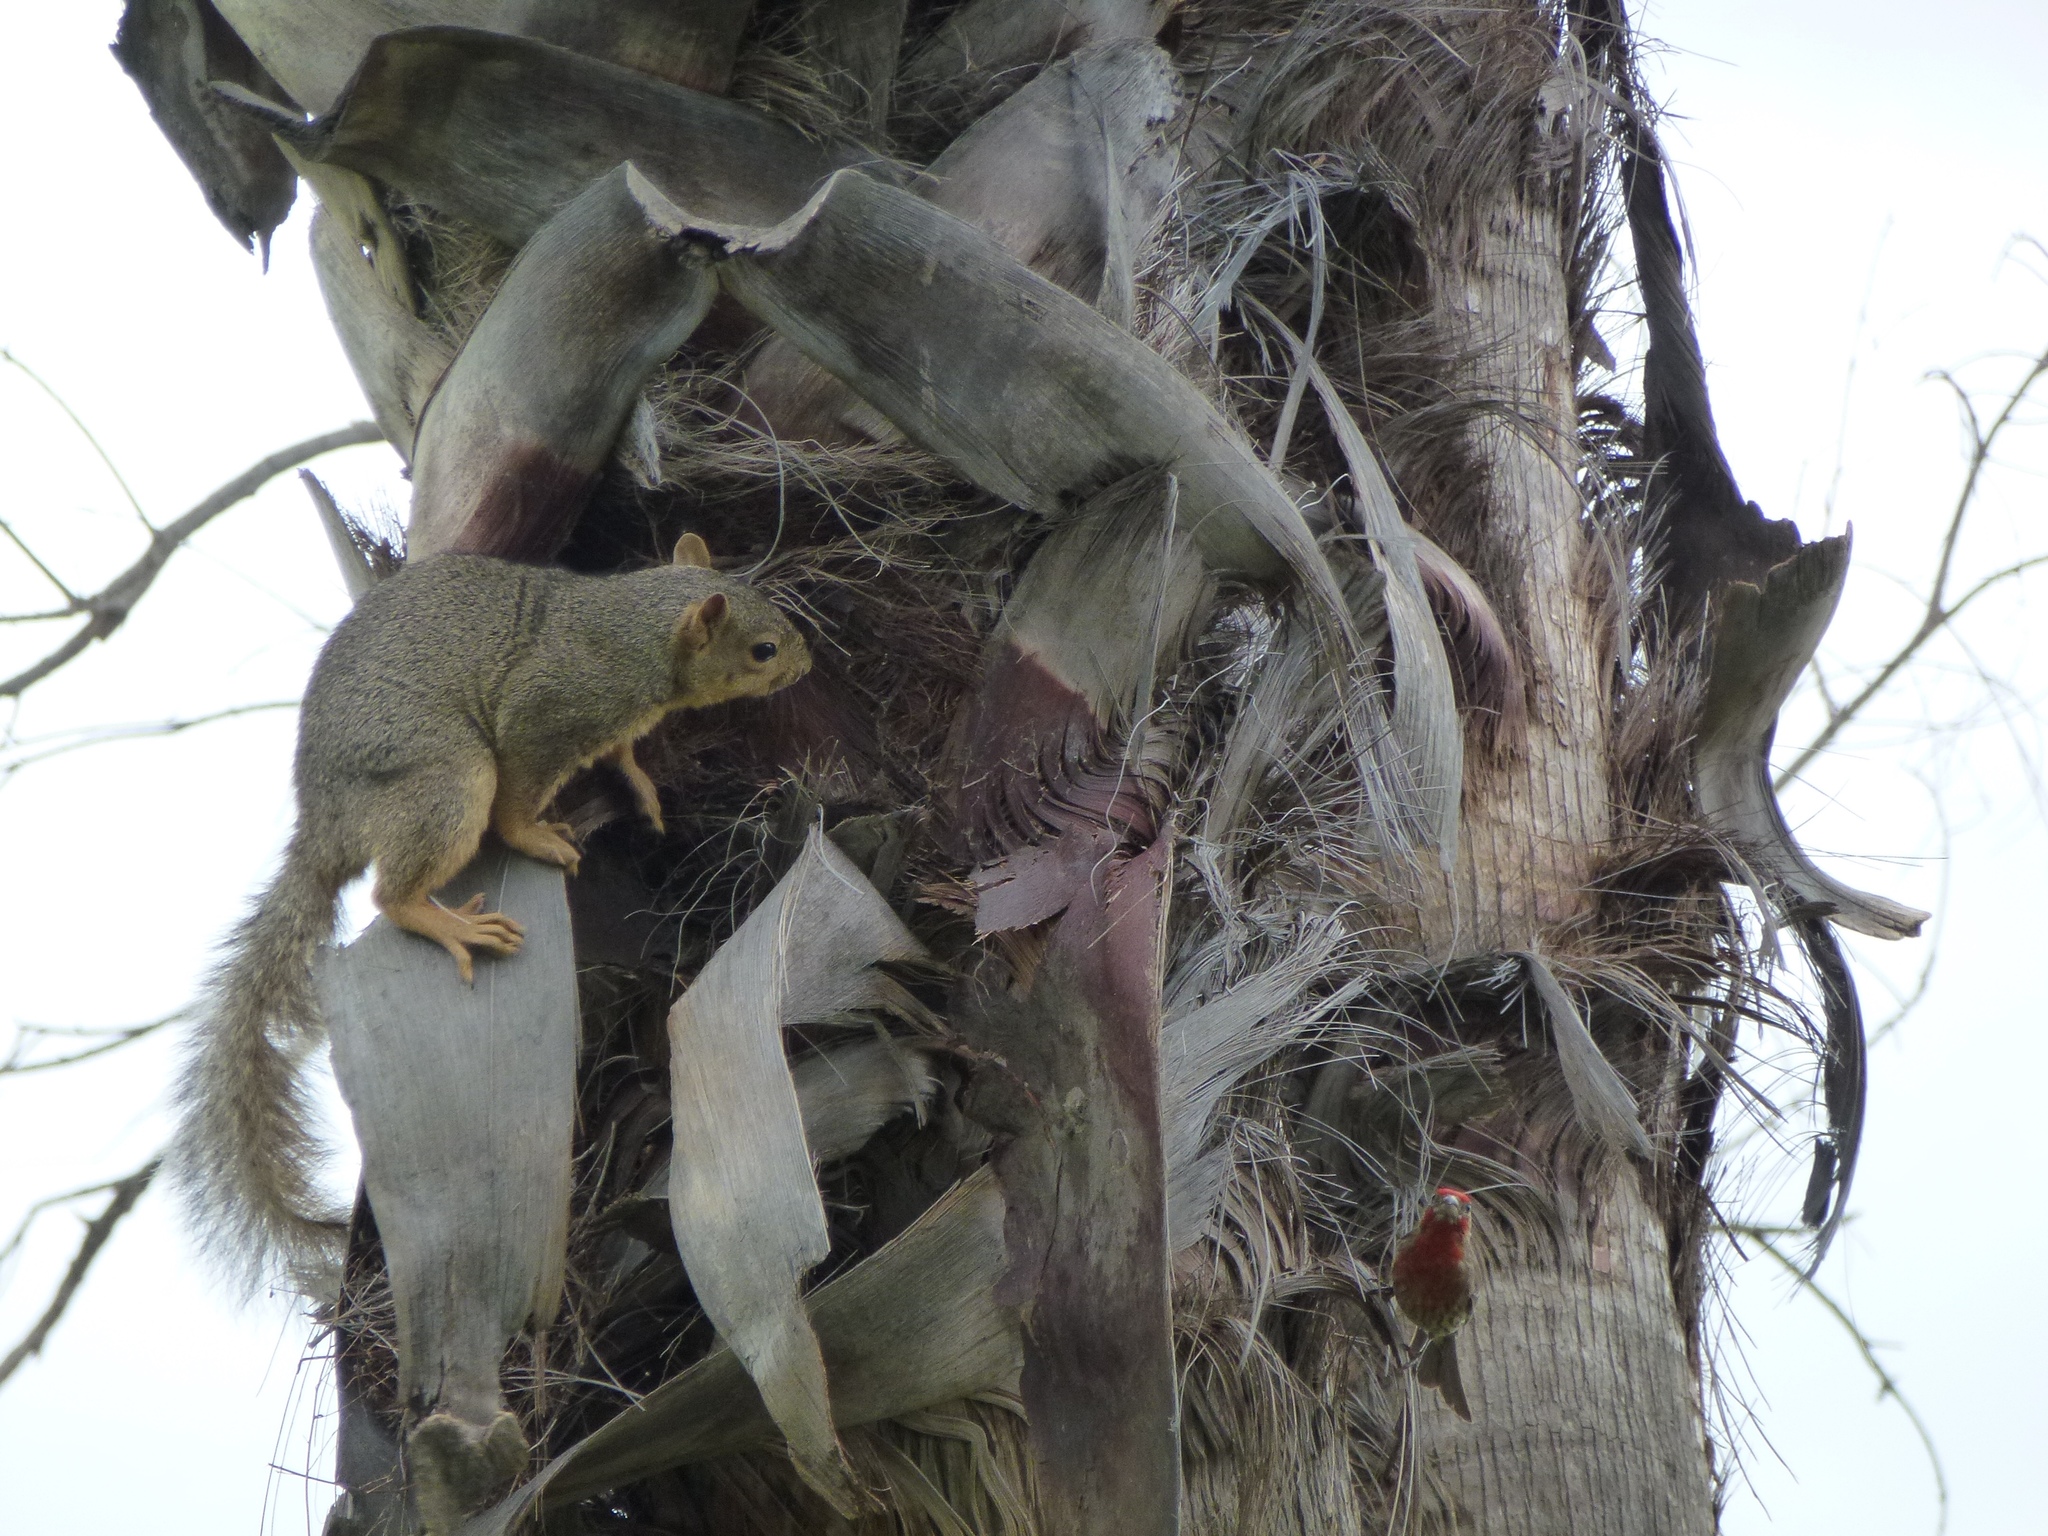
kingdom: Animalia
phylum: Chordata
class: Mammalia
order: Rodentia
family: Sciuridae
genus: Sciurus
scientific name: Sciurus niger
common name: Fox squirrel
